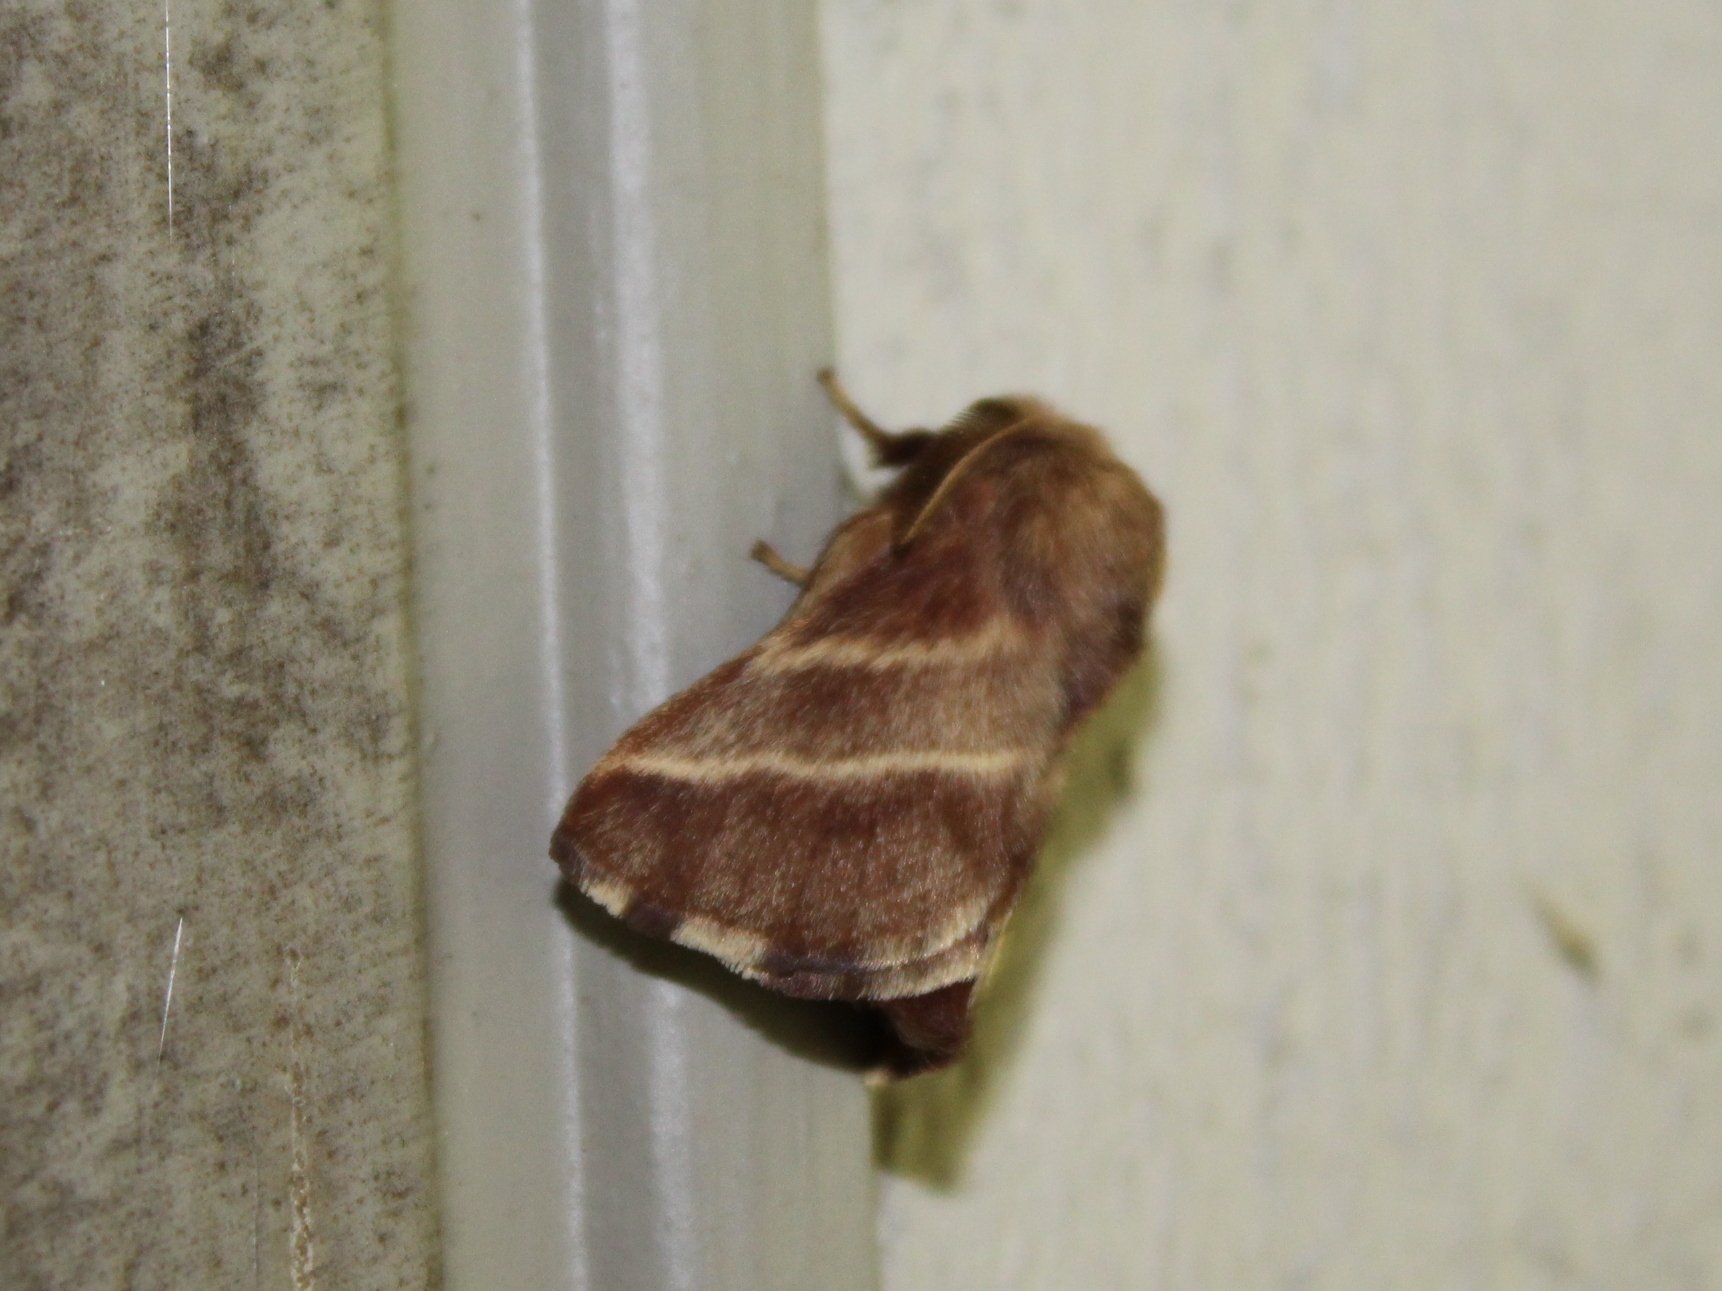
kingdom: Animalia
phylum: Arthropoda
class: Insecta
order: Lepidoptera
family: Lasiocampidae
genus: Malacosoma
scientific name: Malacosoma americana
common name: Eastern tent caterpillar moth
